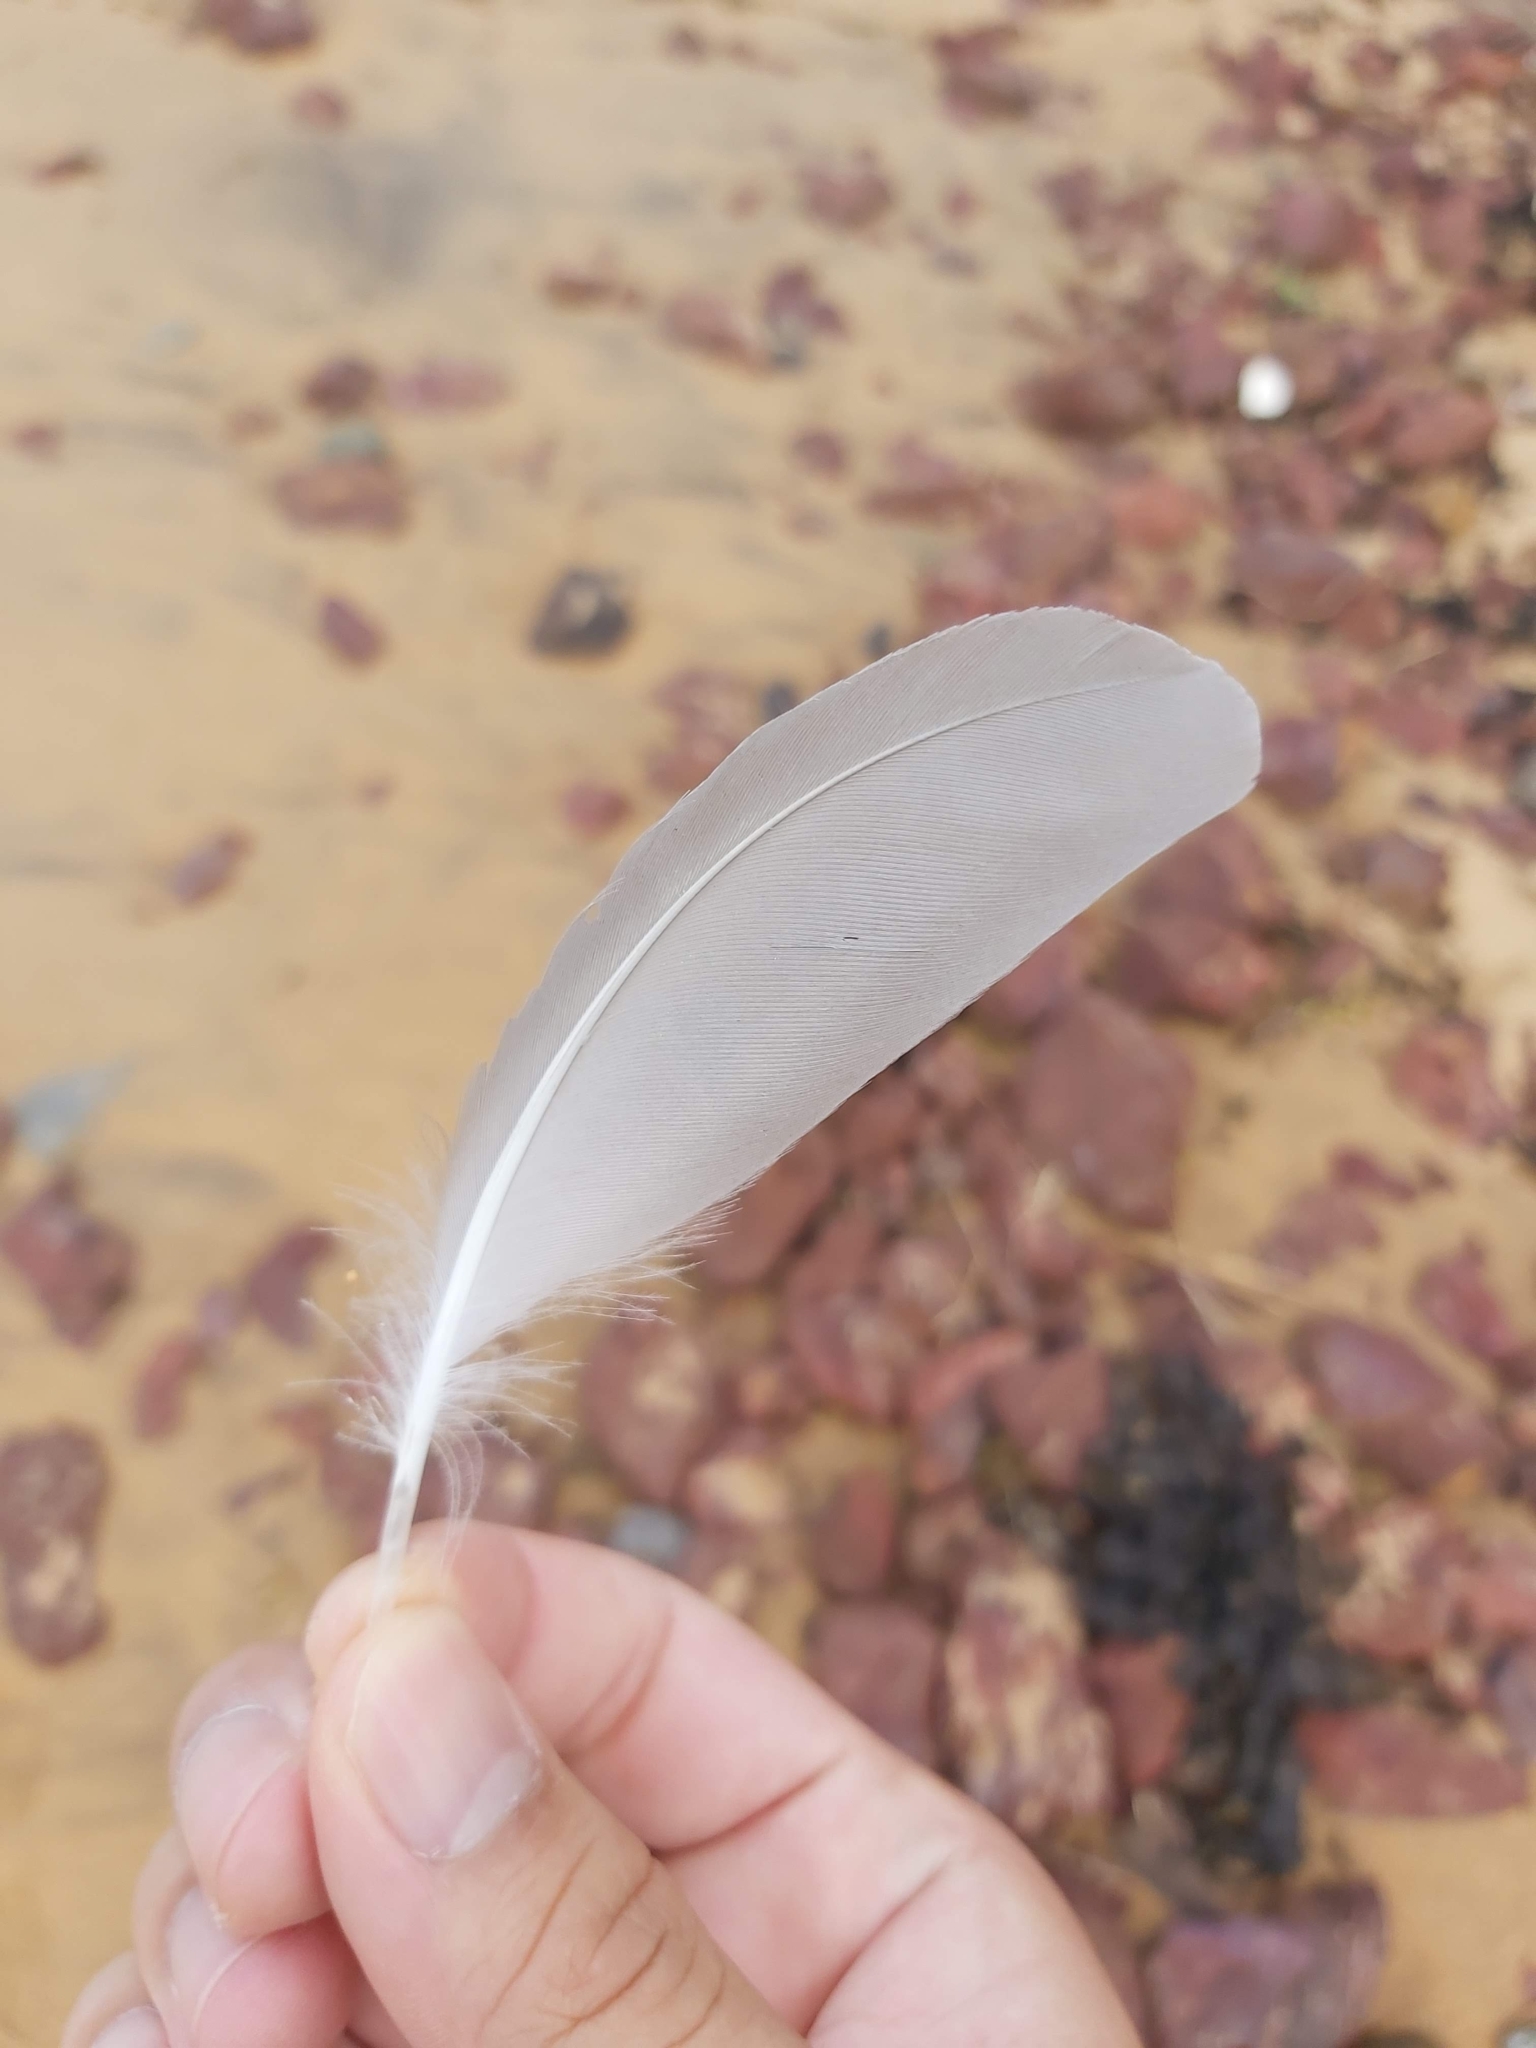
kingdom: Animalia
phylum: Chordata
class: Aves
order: Charadriiformes
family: Laridae
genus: Chroicocephalus
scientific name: Chroicocephalus novaehollandiae
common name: Silver gull
